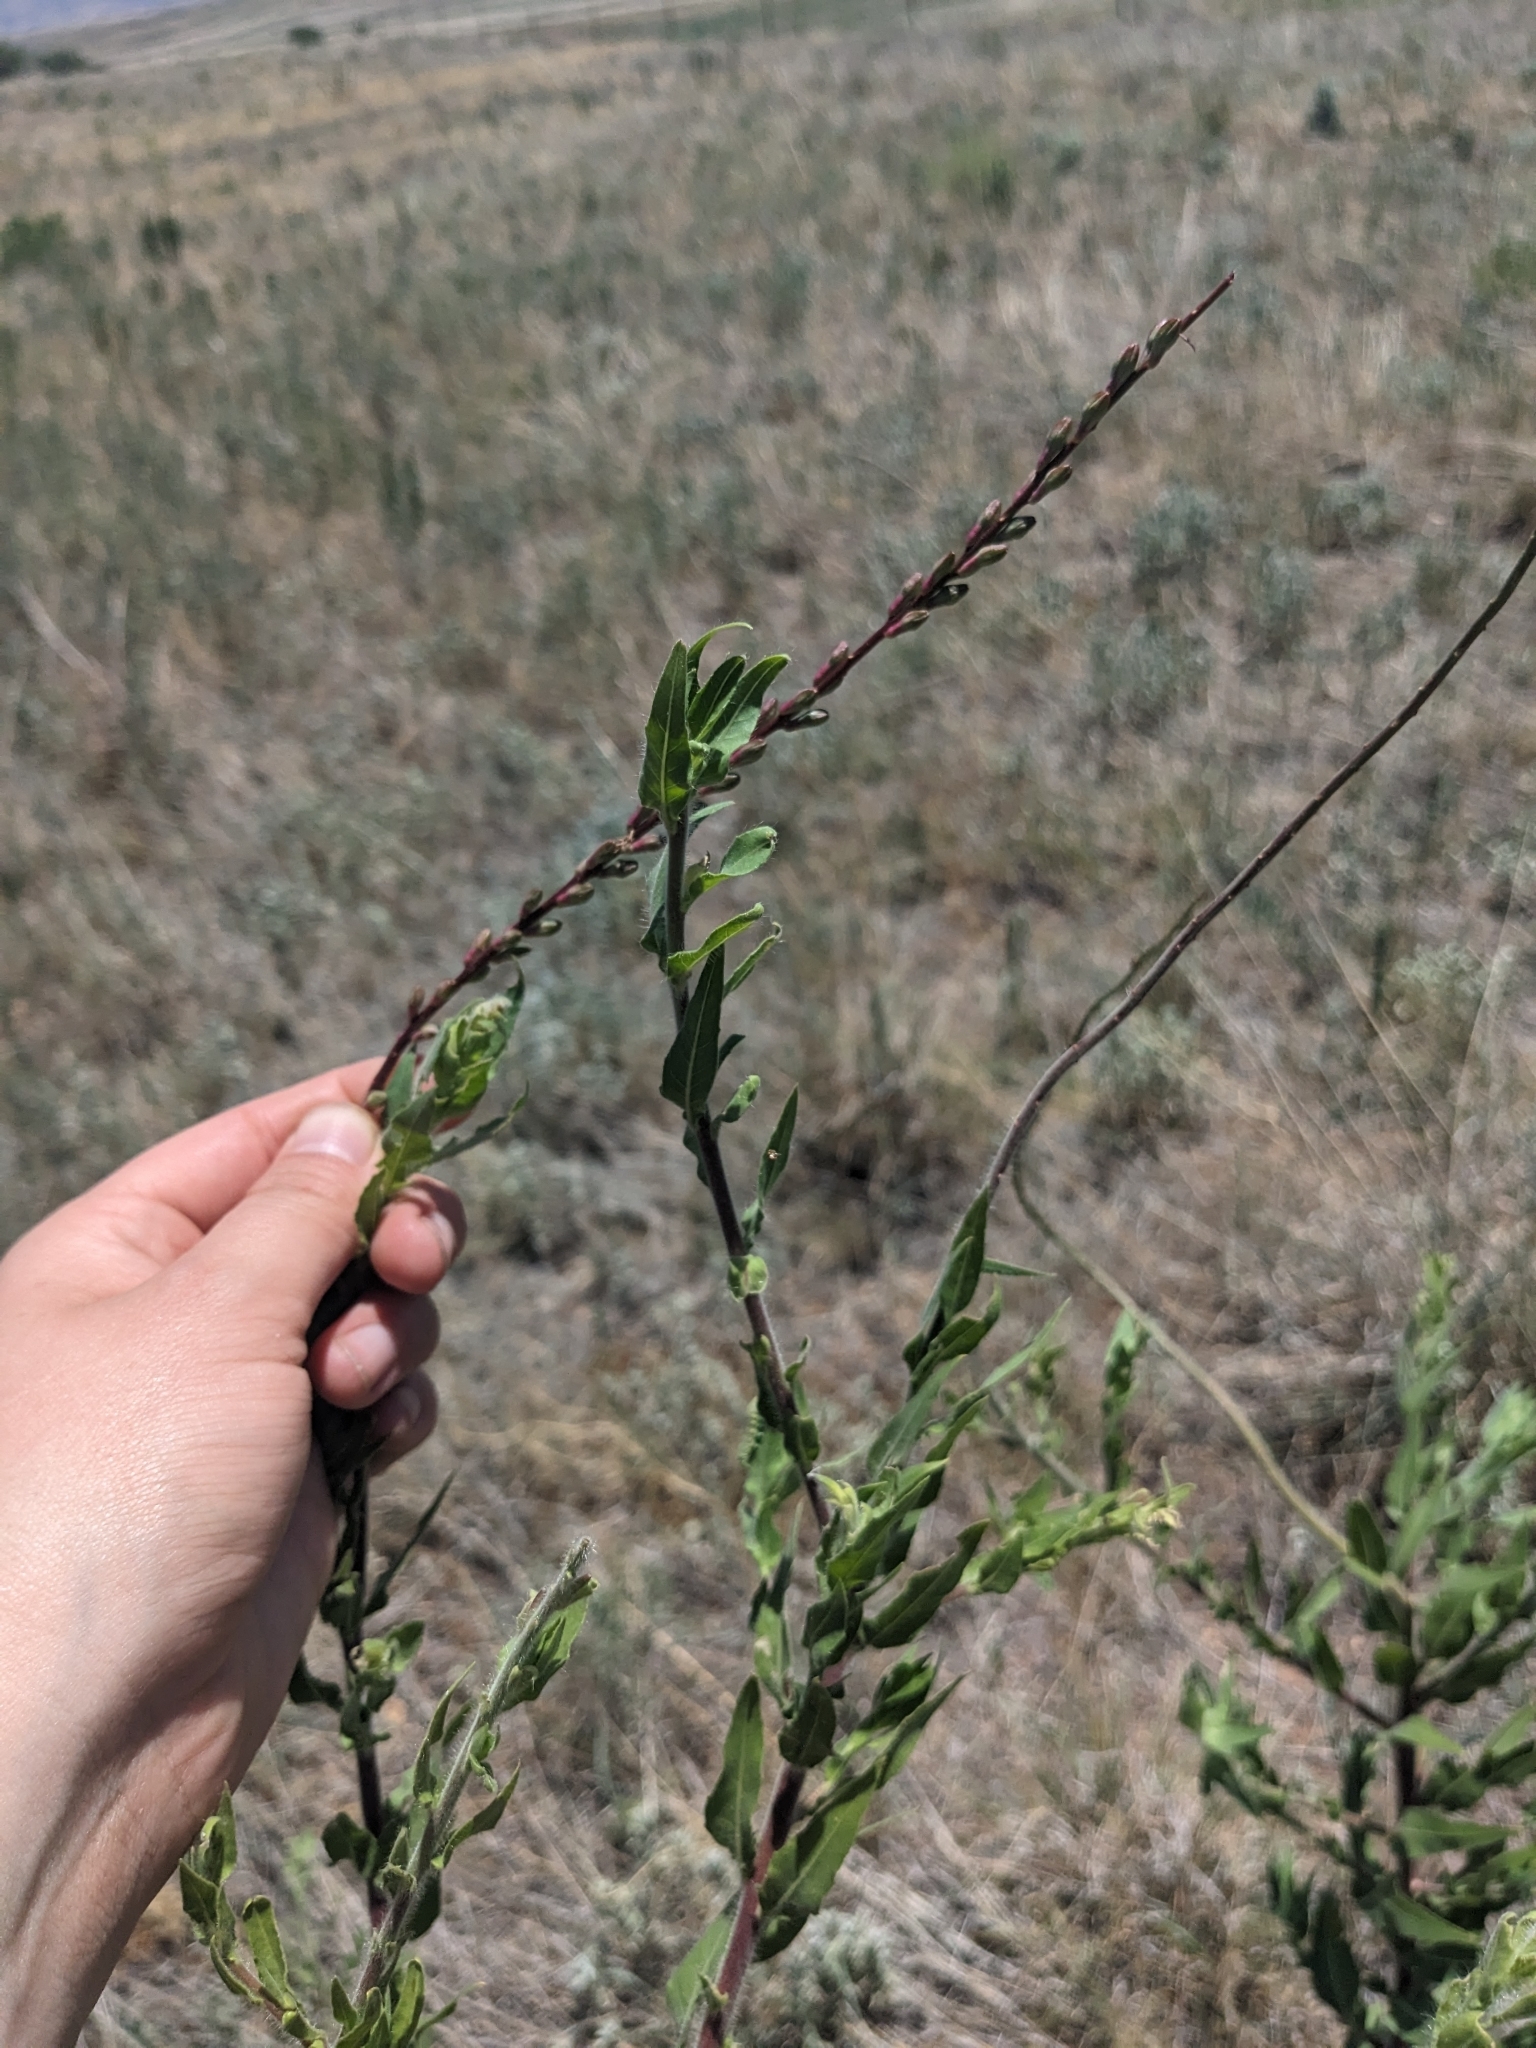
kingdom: Plantae
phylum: Tracheophyta
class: Magnoliopsida
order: Myrtales
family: Onagraceae
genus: Oenothera
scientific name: Oenothera curtiflora
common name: Velvetweed
